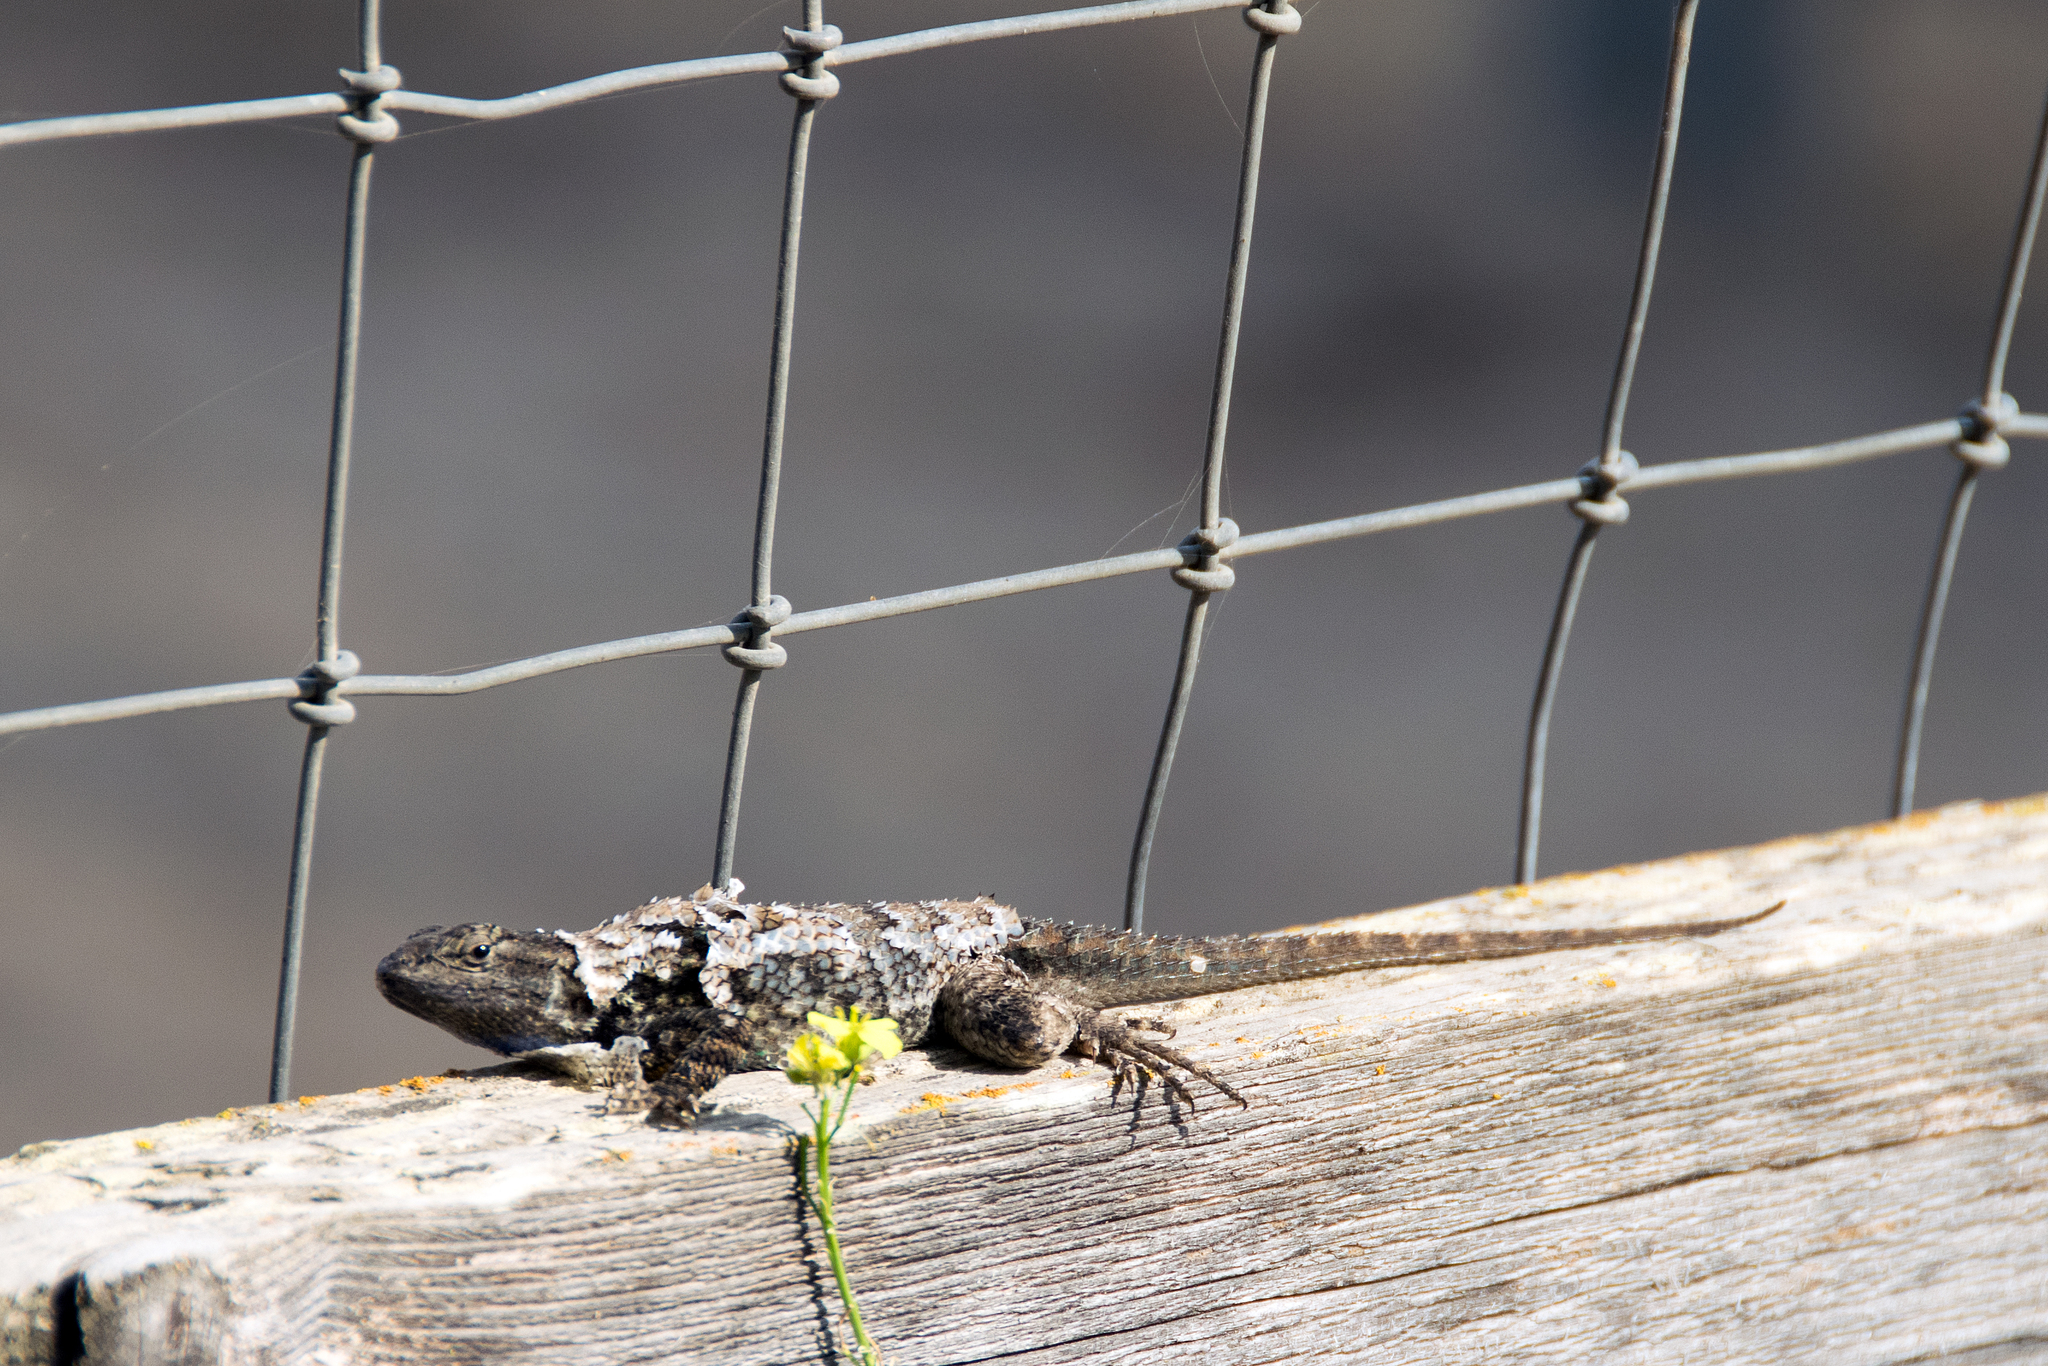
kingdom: Animalia
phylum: Chordata
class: Squamata
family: Phrynosomatidae
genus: Sceloporus
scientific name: Sceloporus occidentalis
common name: Western fence lizard
